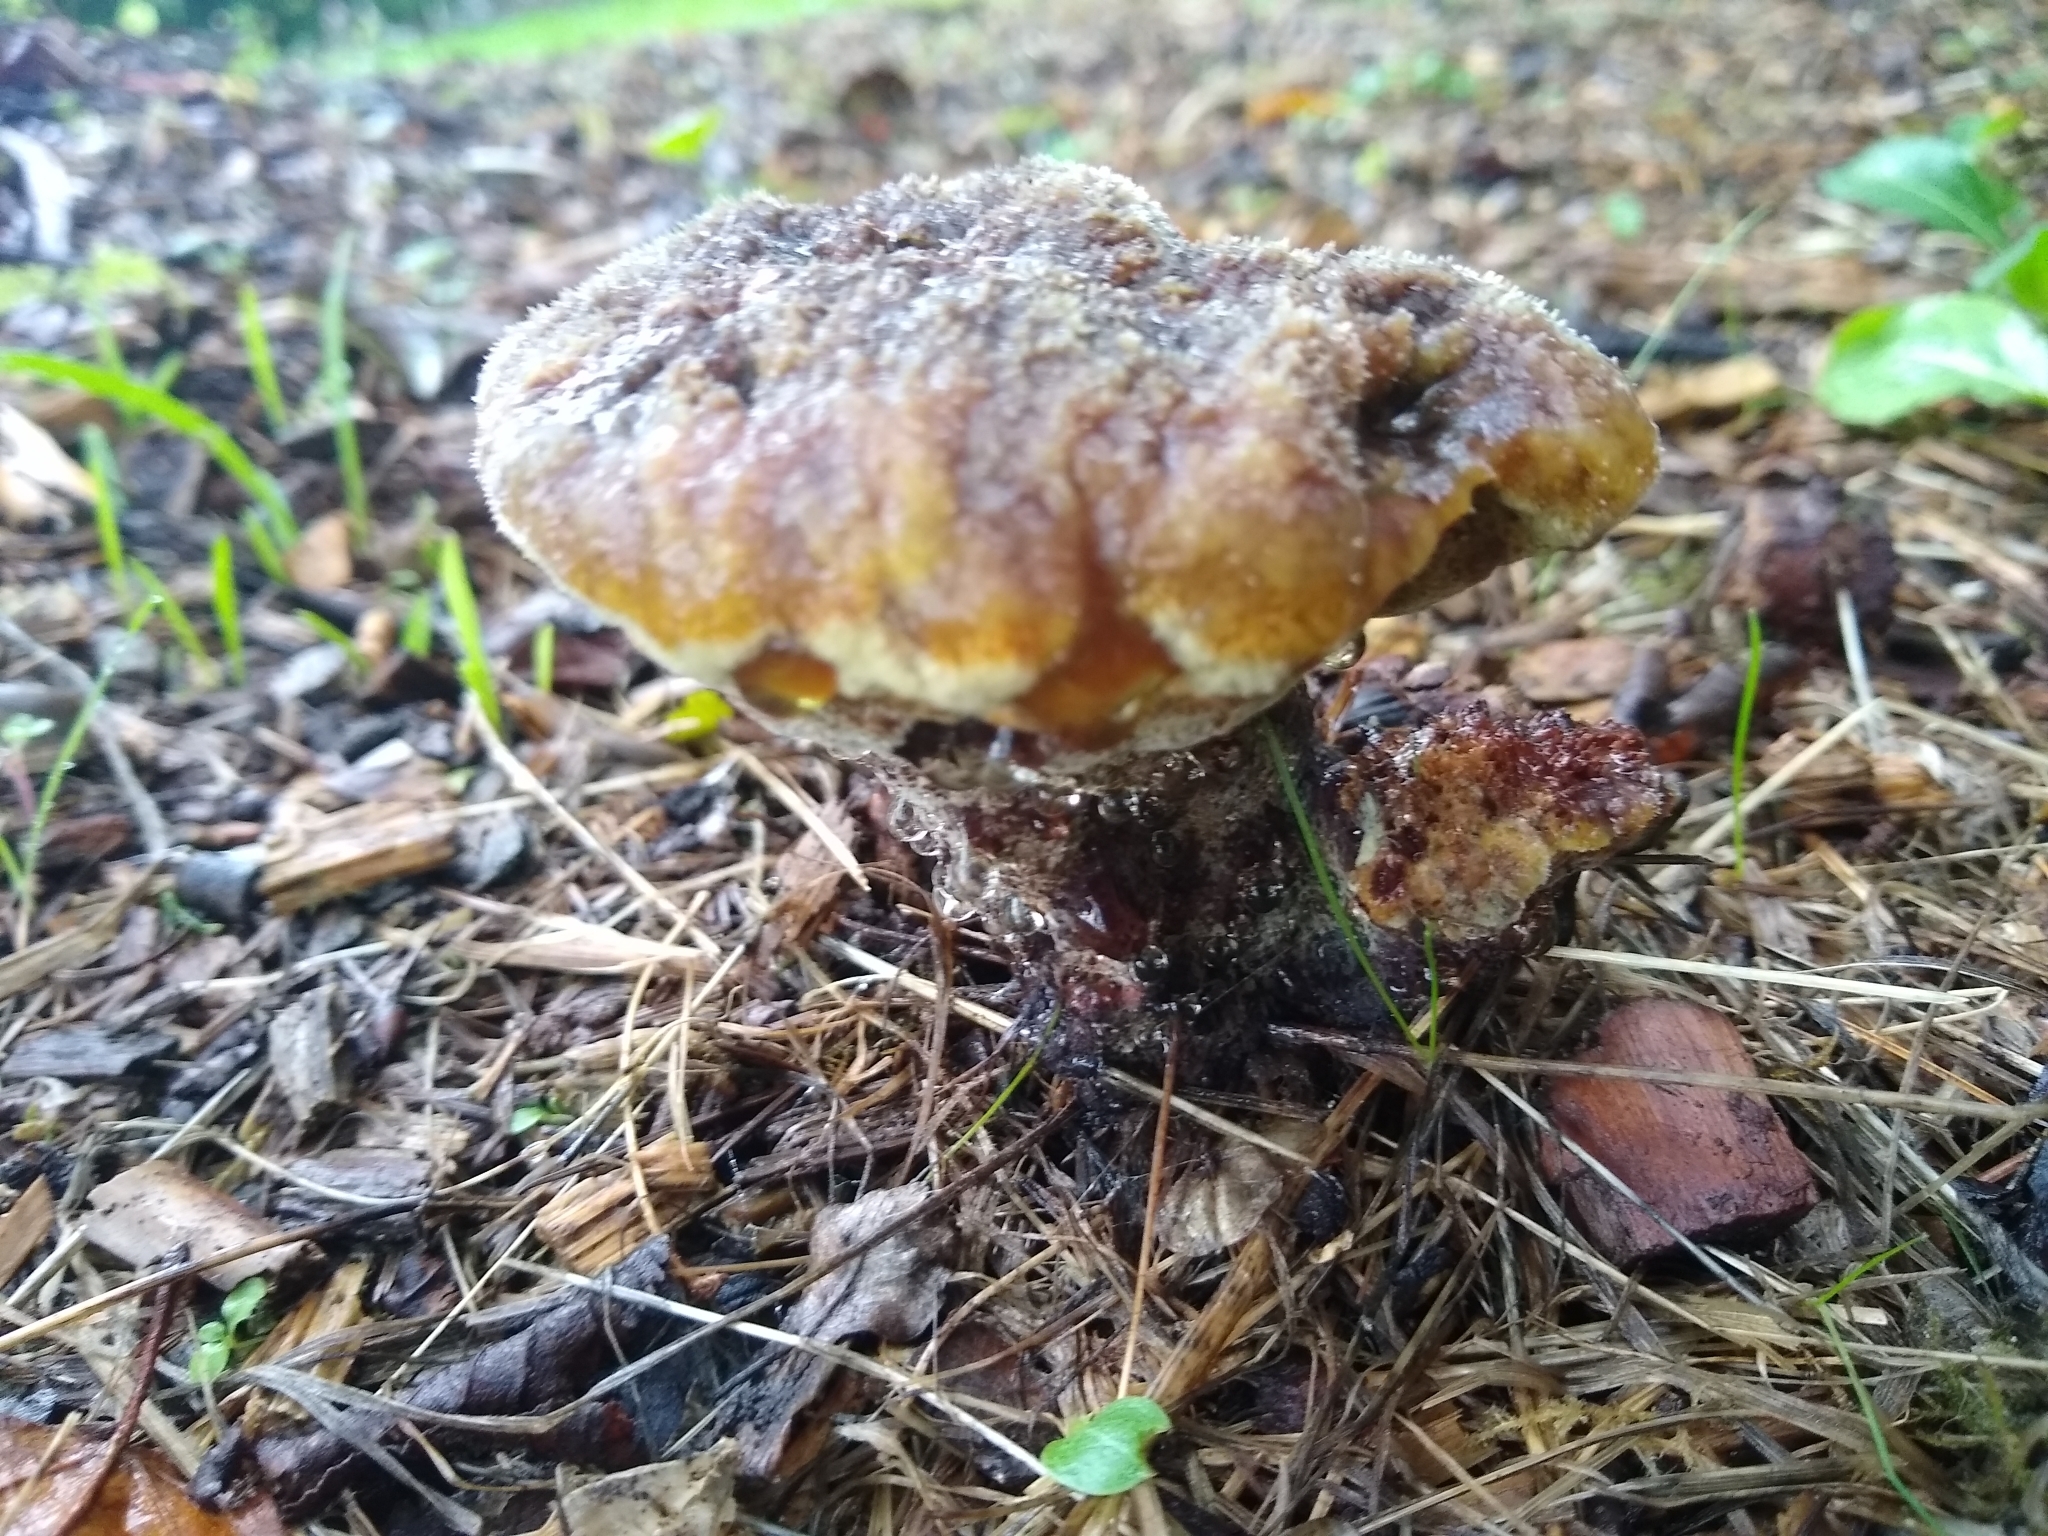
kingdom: Fungi
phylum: Basidiomycota
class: Agaricomycetes
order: Polyporales
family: Laetiporaceae
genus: Phaeolus
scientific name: Phaeolus schweinitzii
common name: Dyer's mazegill
